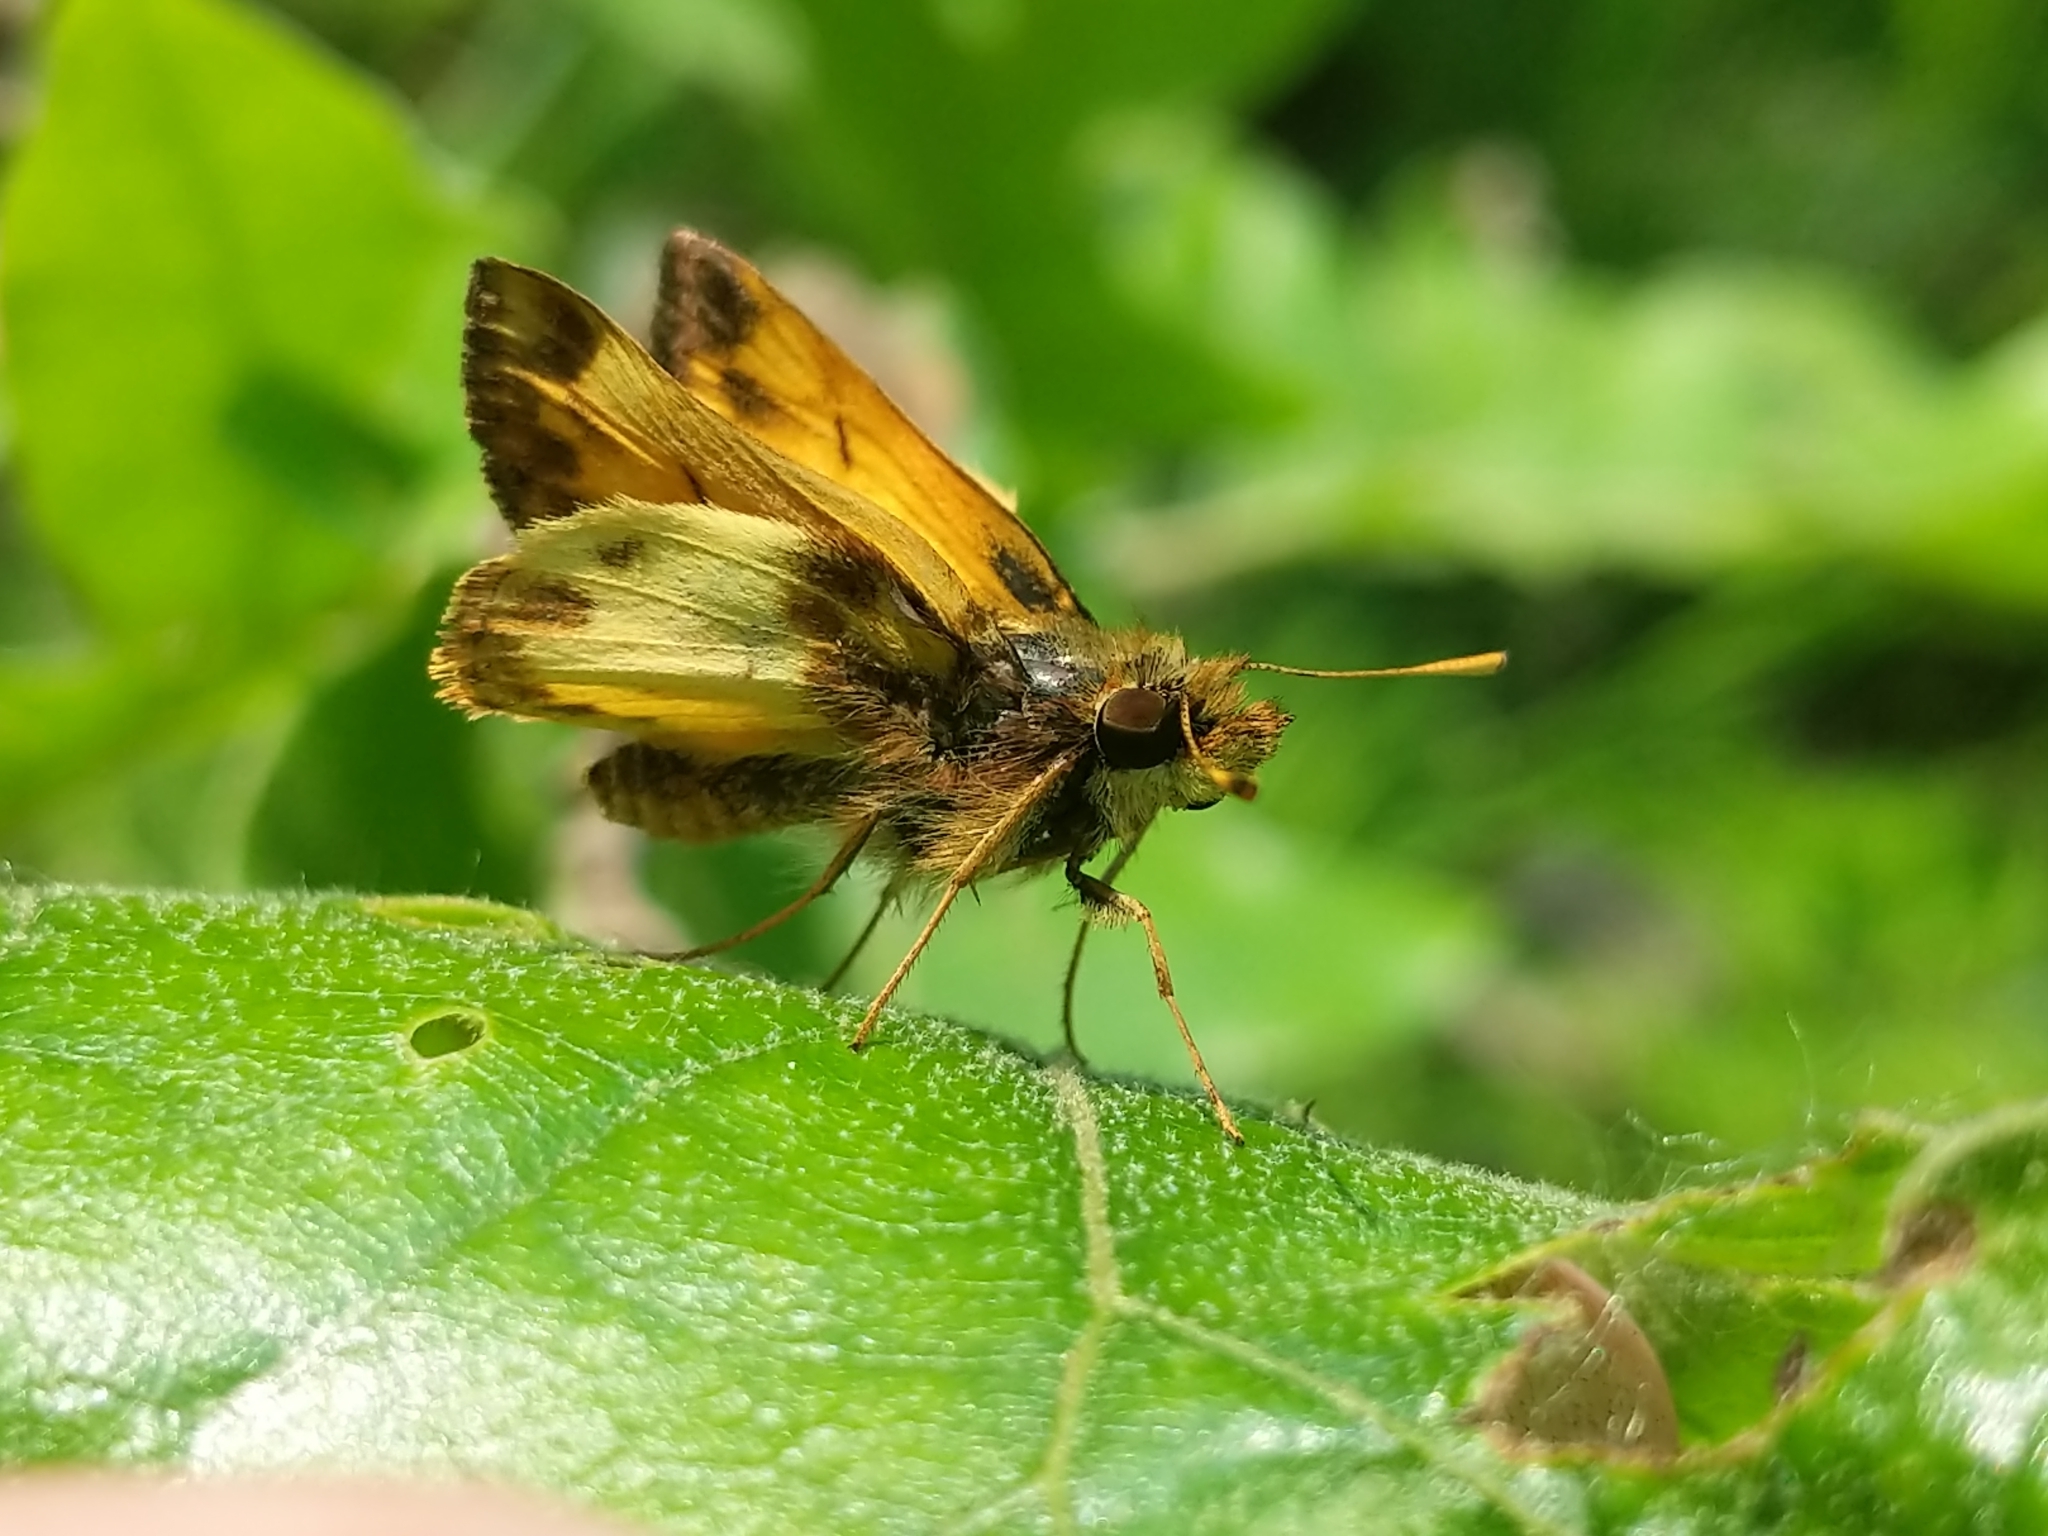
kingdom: Animalia
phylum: Arthropoda
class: Insecta
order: Lepidoptera
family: Hesperiidae
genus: Lon
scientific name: Lon zabulon
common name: Zabulon skipper
